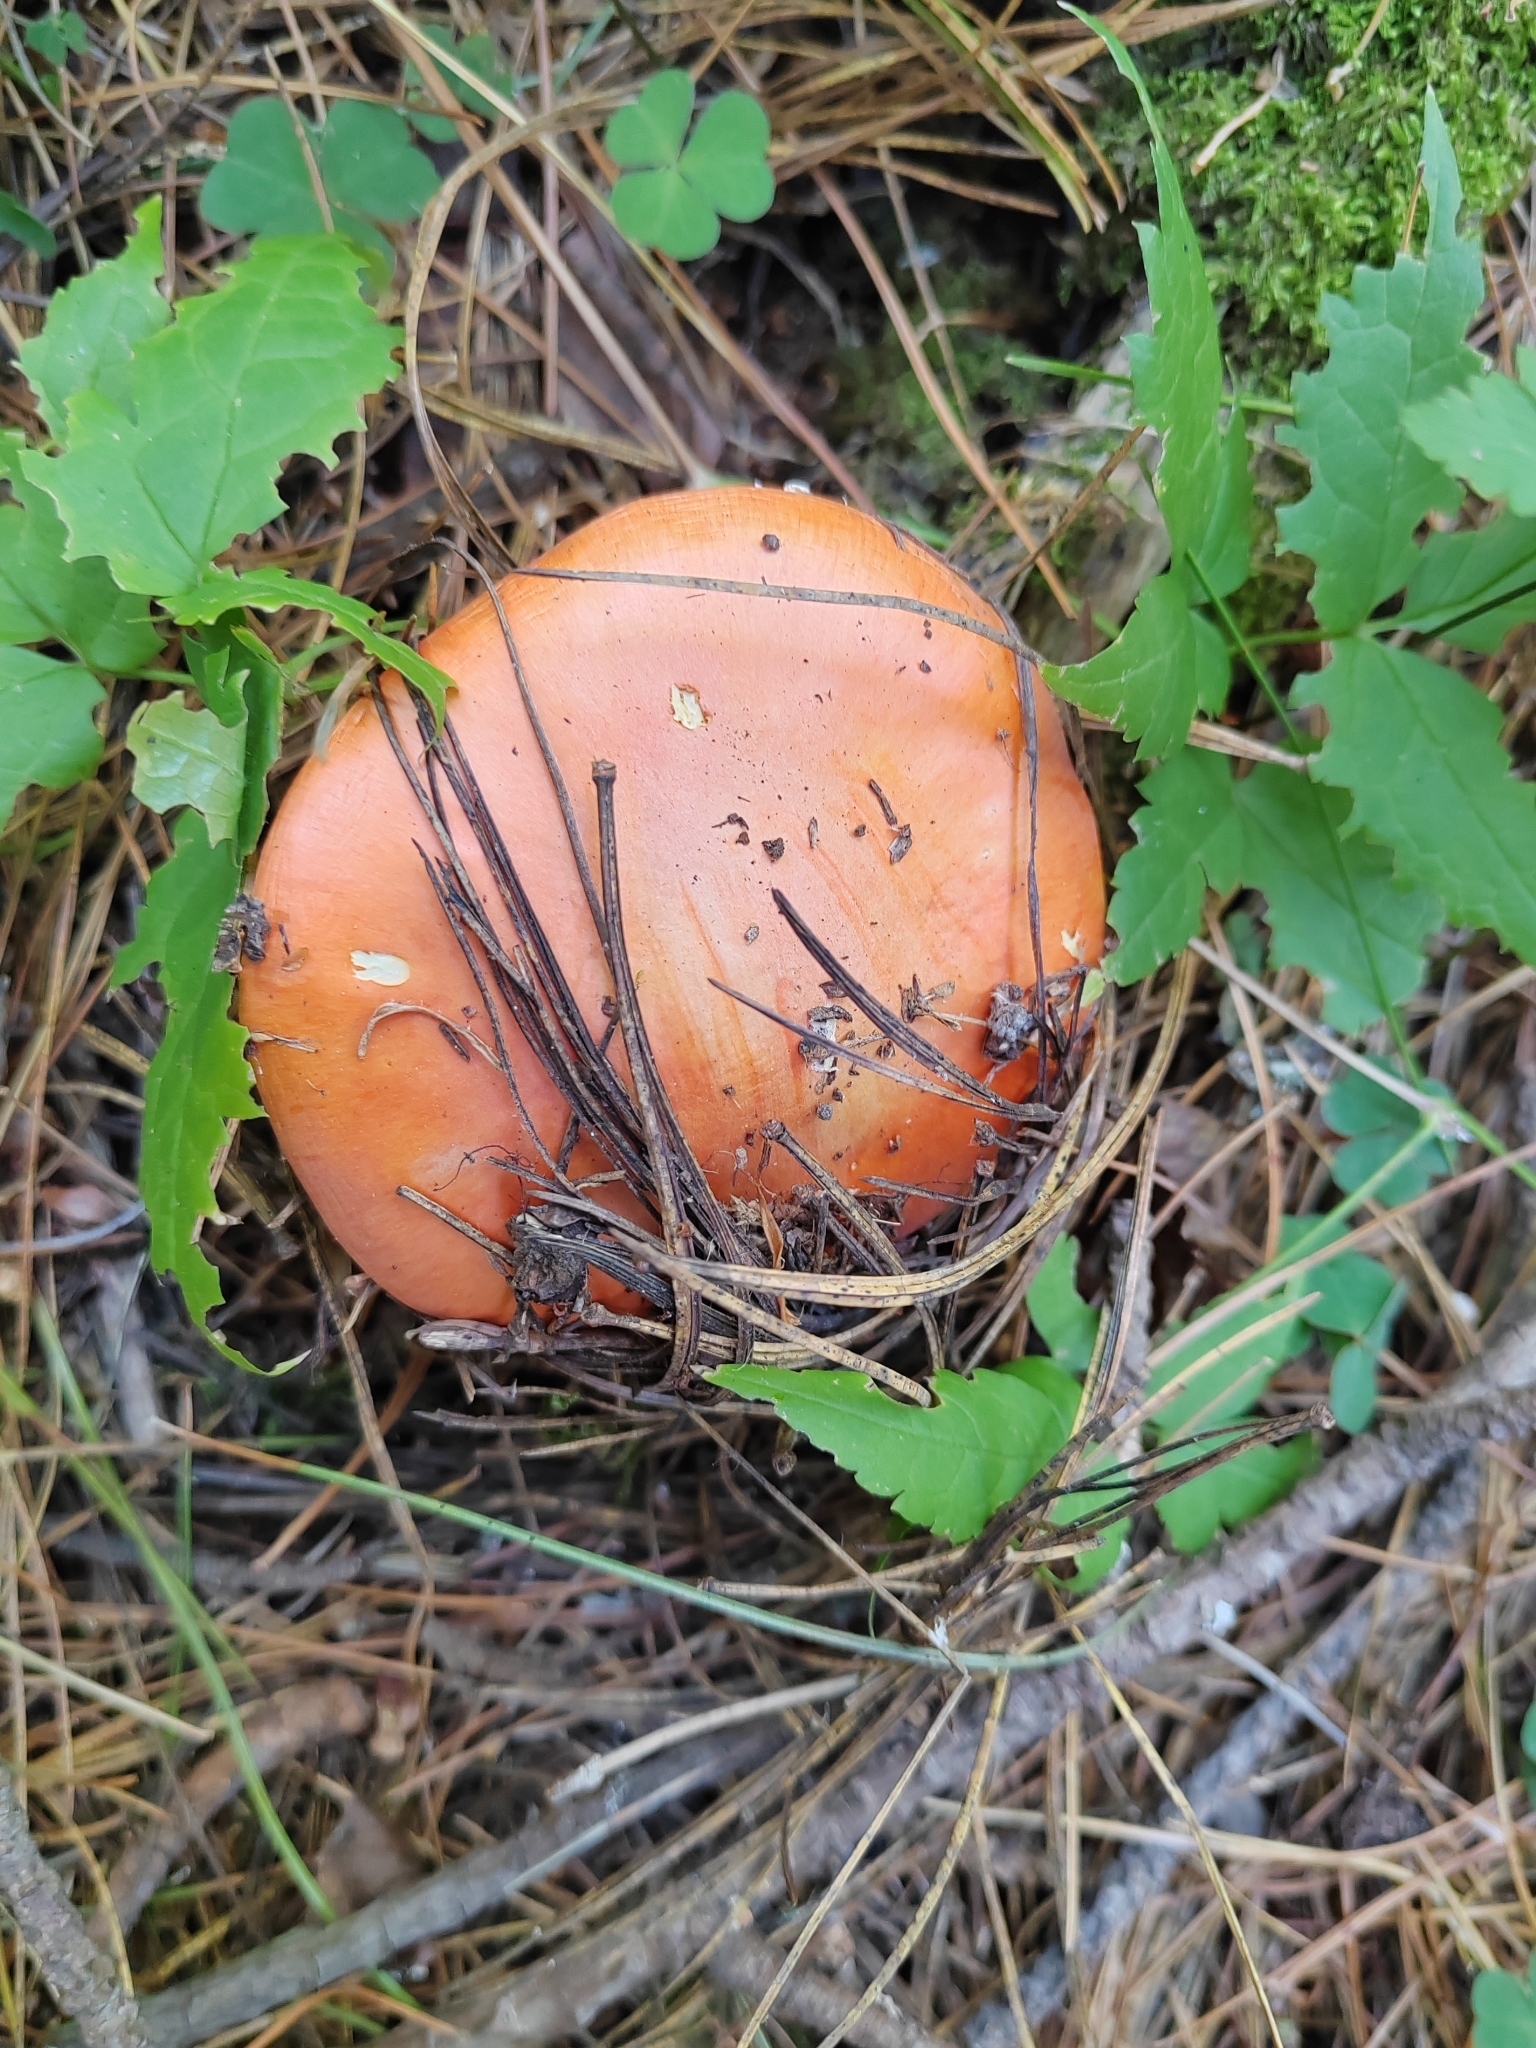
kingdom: Fungi
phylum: Basidiomycota
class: Agaricomycetes
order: Agaricales
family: Amanitaceae
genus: Amanita
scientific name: Amanita muscaria
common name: Fly agaric
